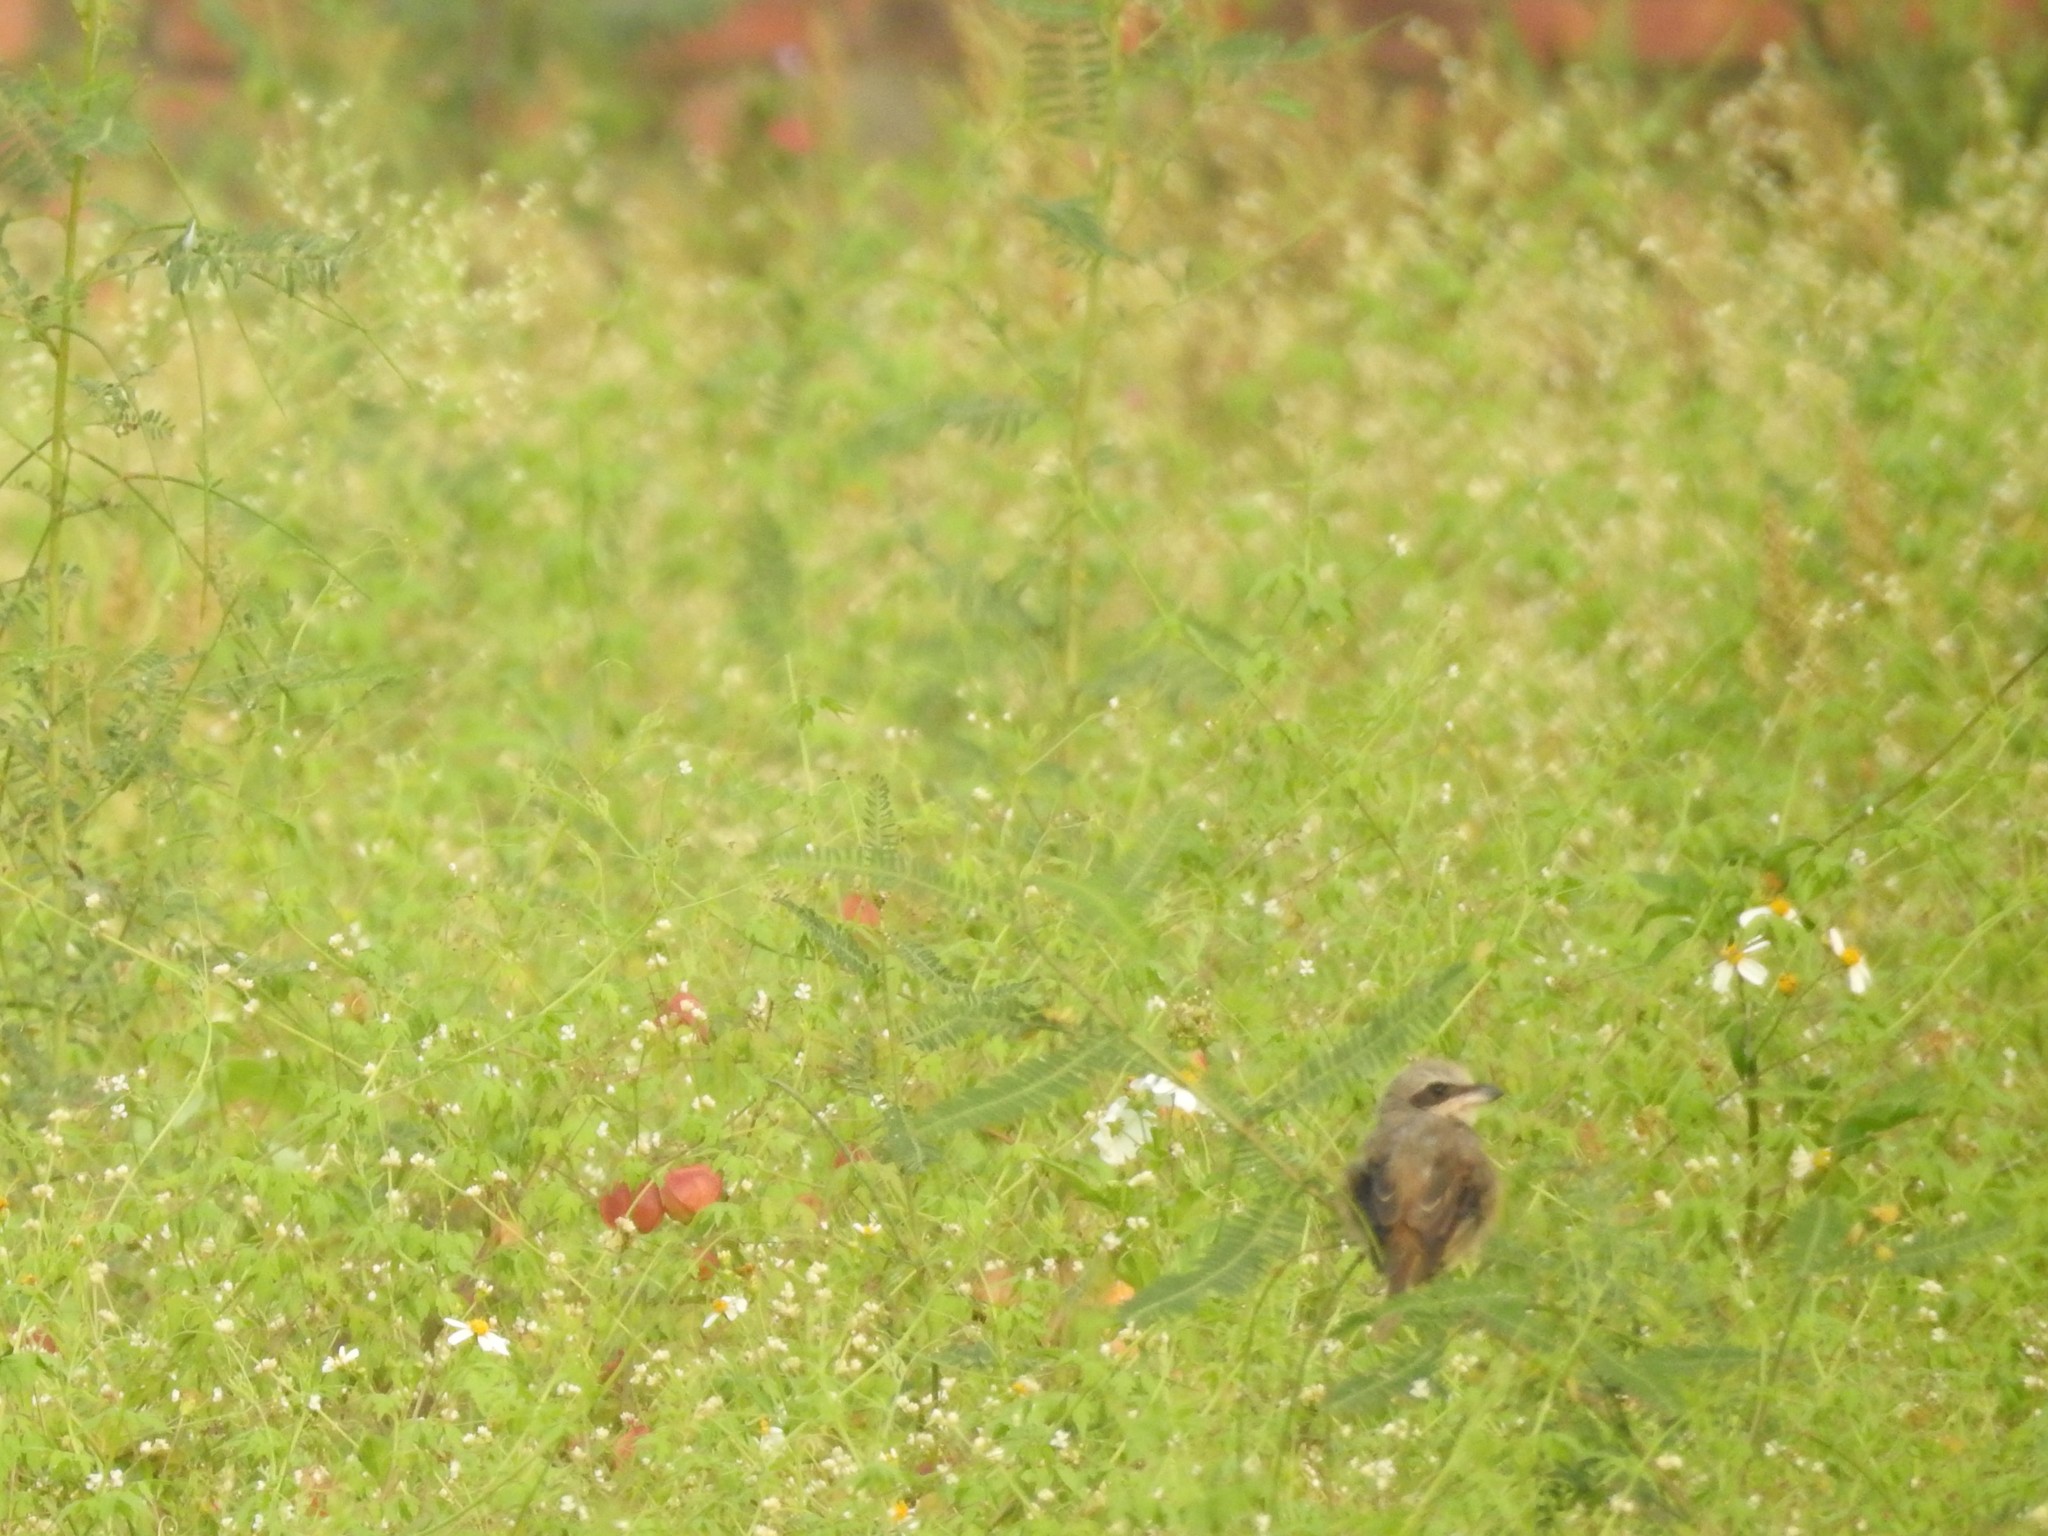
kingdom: Animalia
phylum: Chordata
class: Aves
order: Passeriformes
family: Laniidae
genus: Lanius
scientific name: Lanius cristatus
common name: Brown shrike
